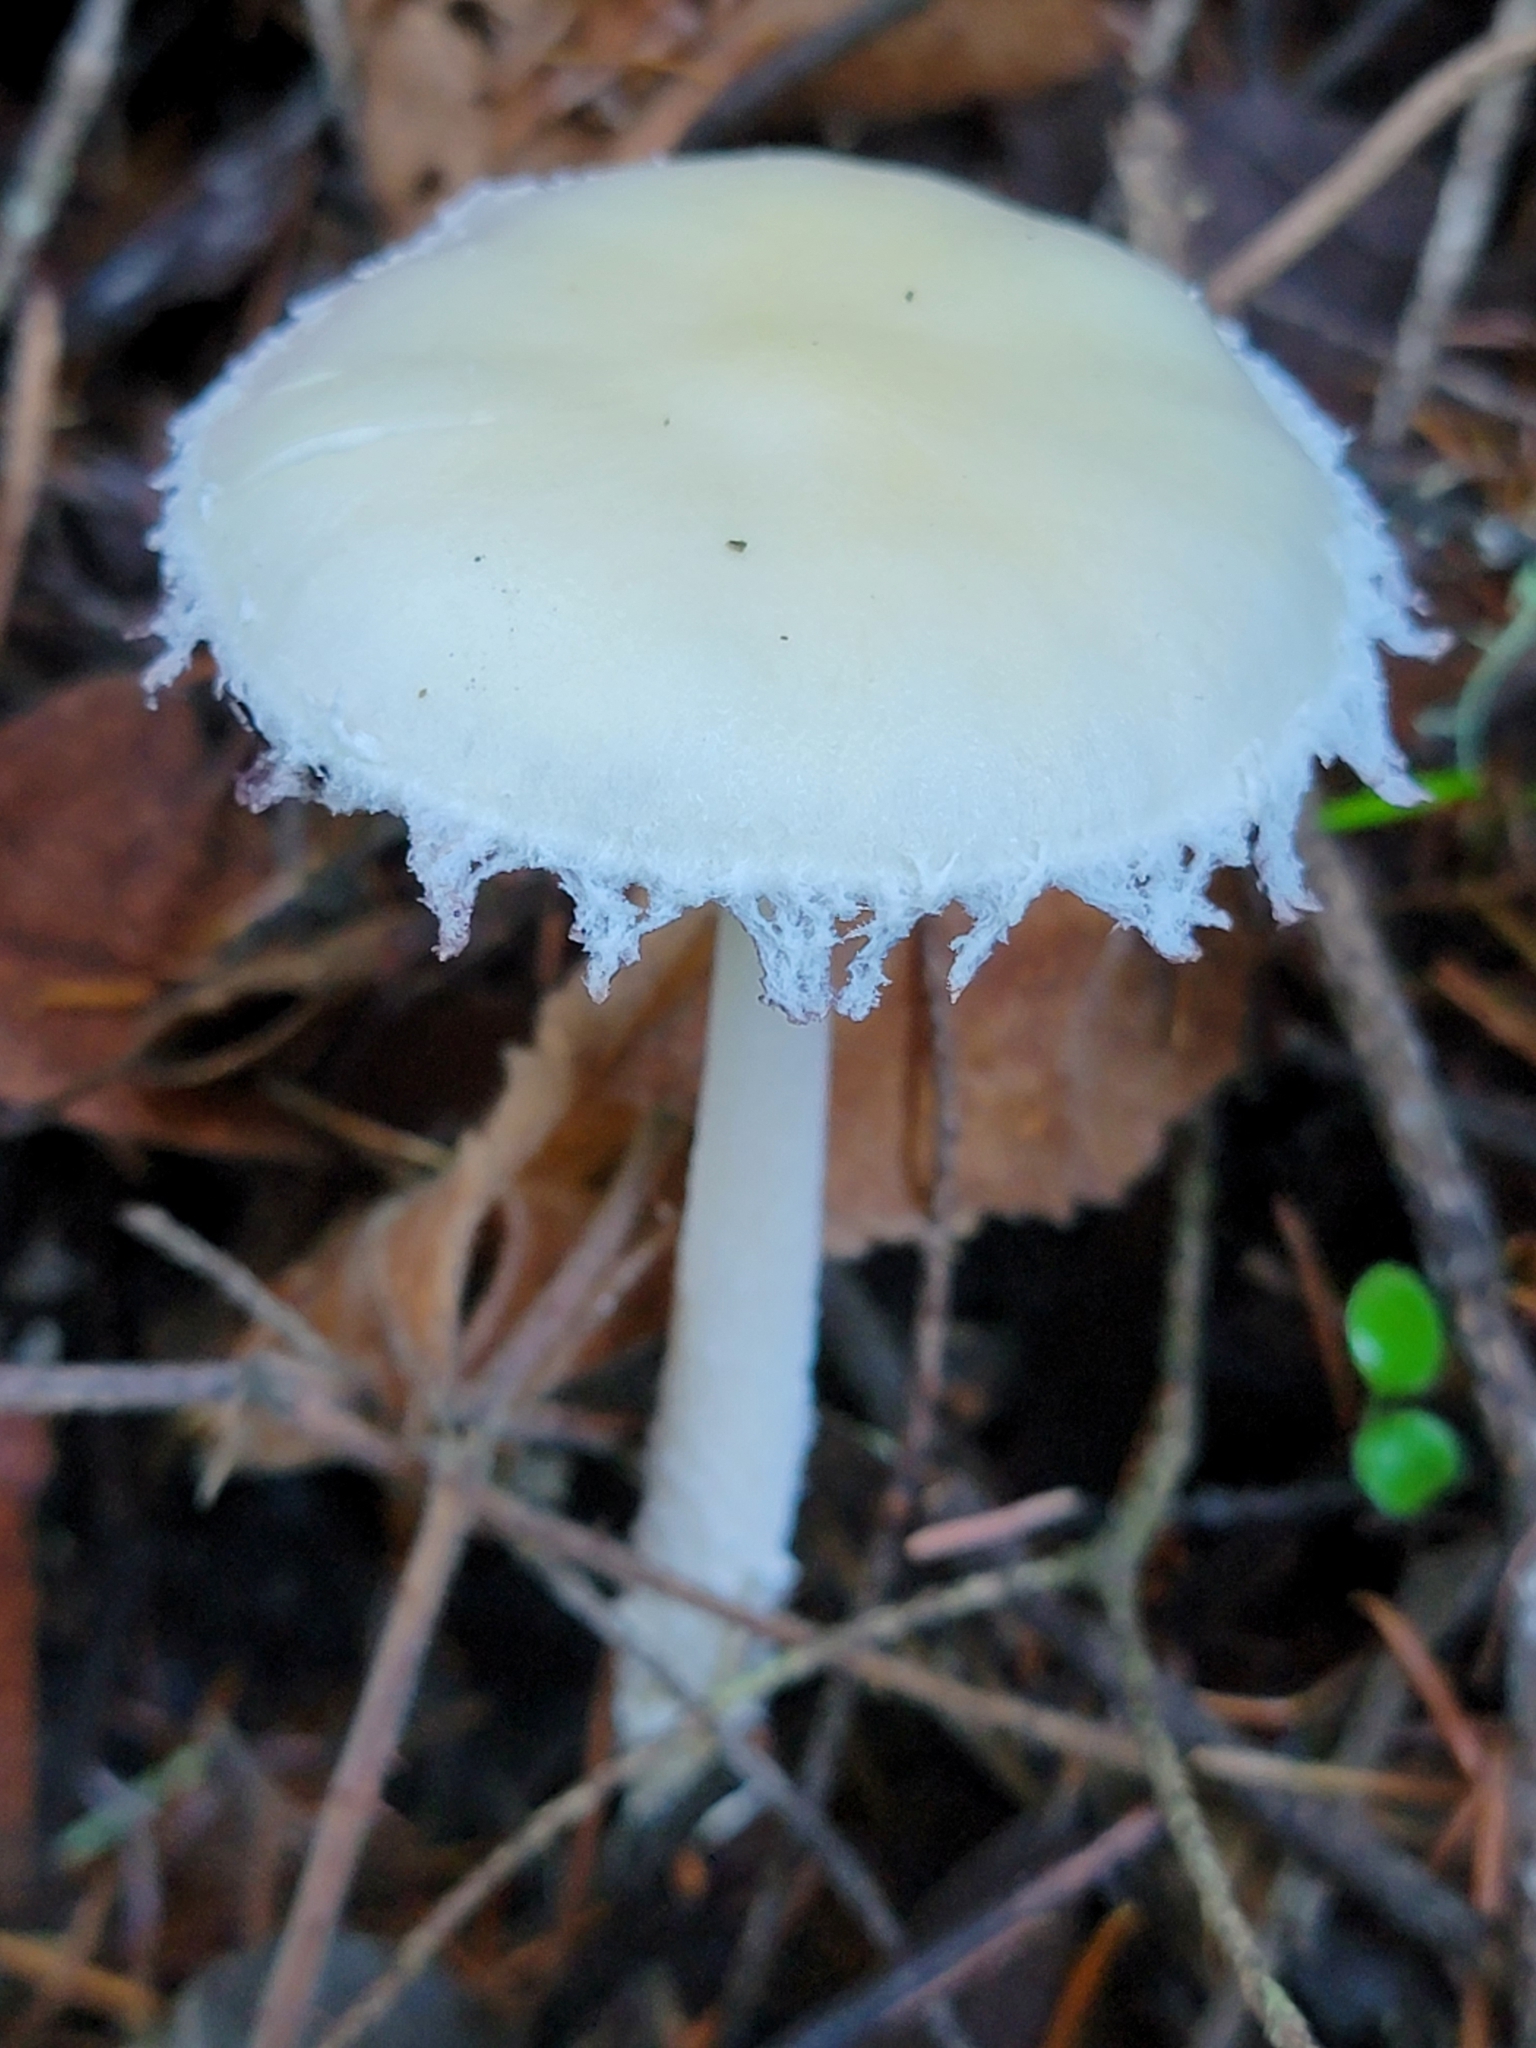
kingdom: Fungi
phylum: Basidiomycota
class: Agaricomycetes
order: Agaricales
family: Strophariaceae
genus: Stropharia
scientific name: Stropharia ambigua
